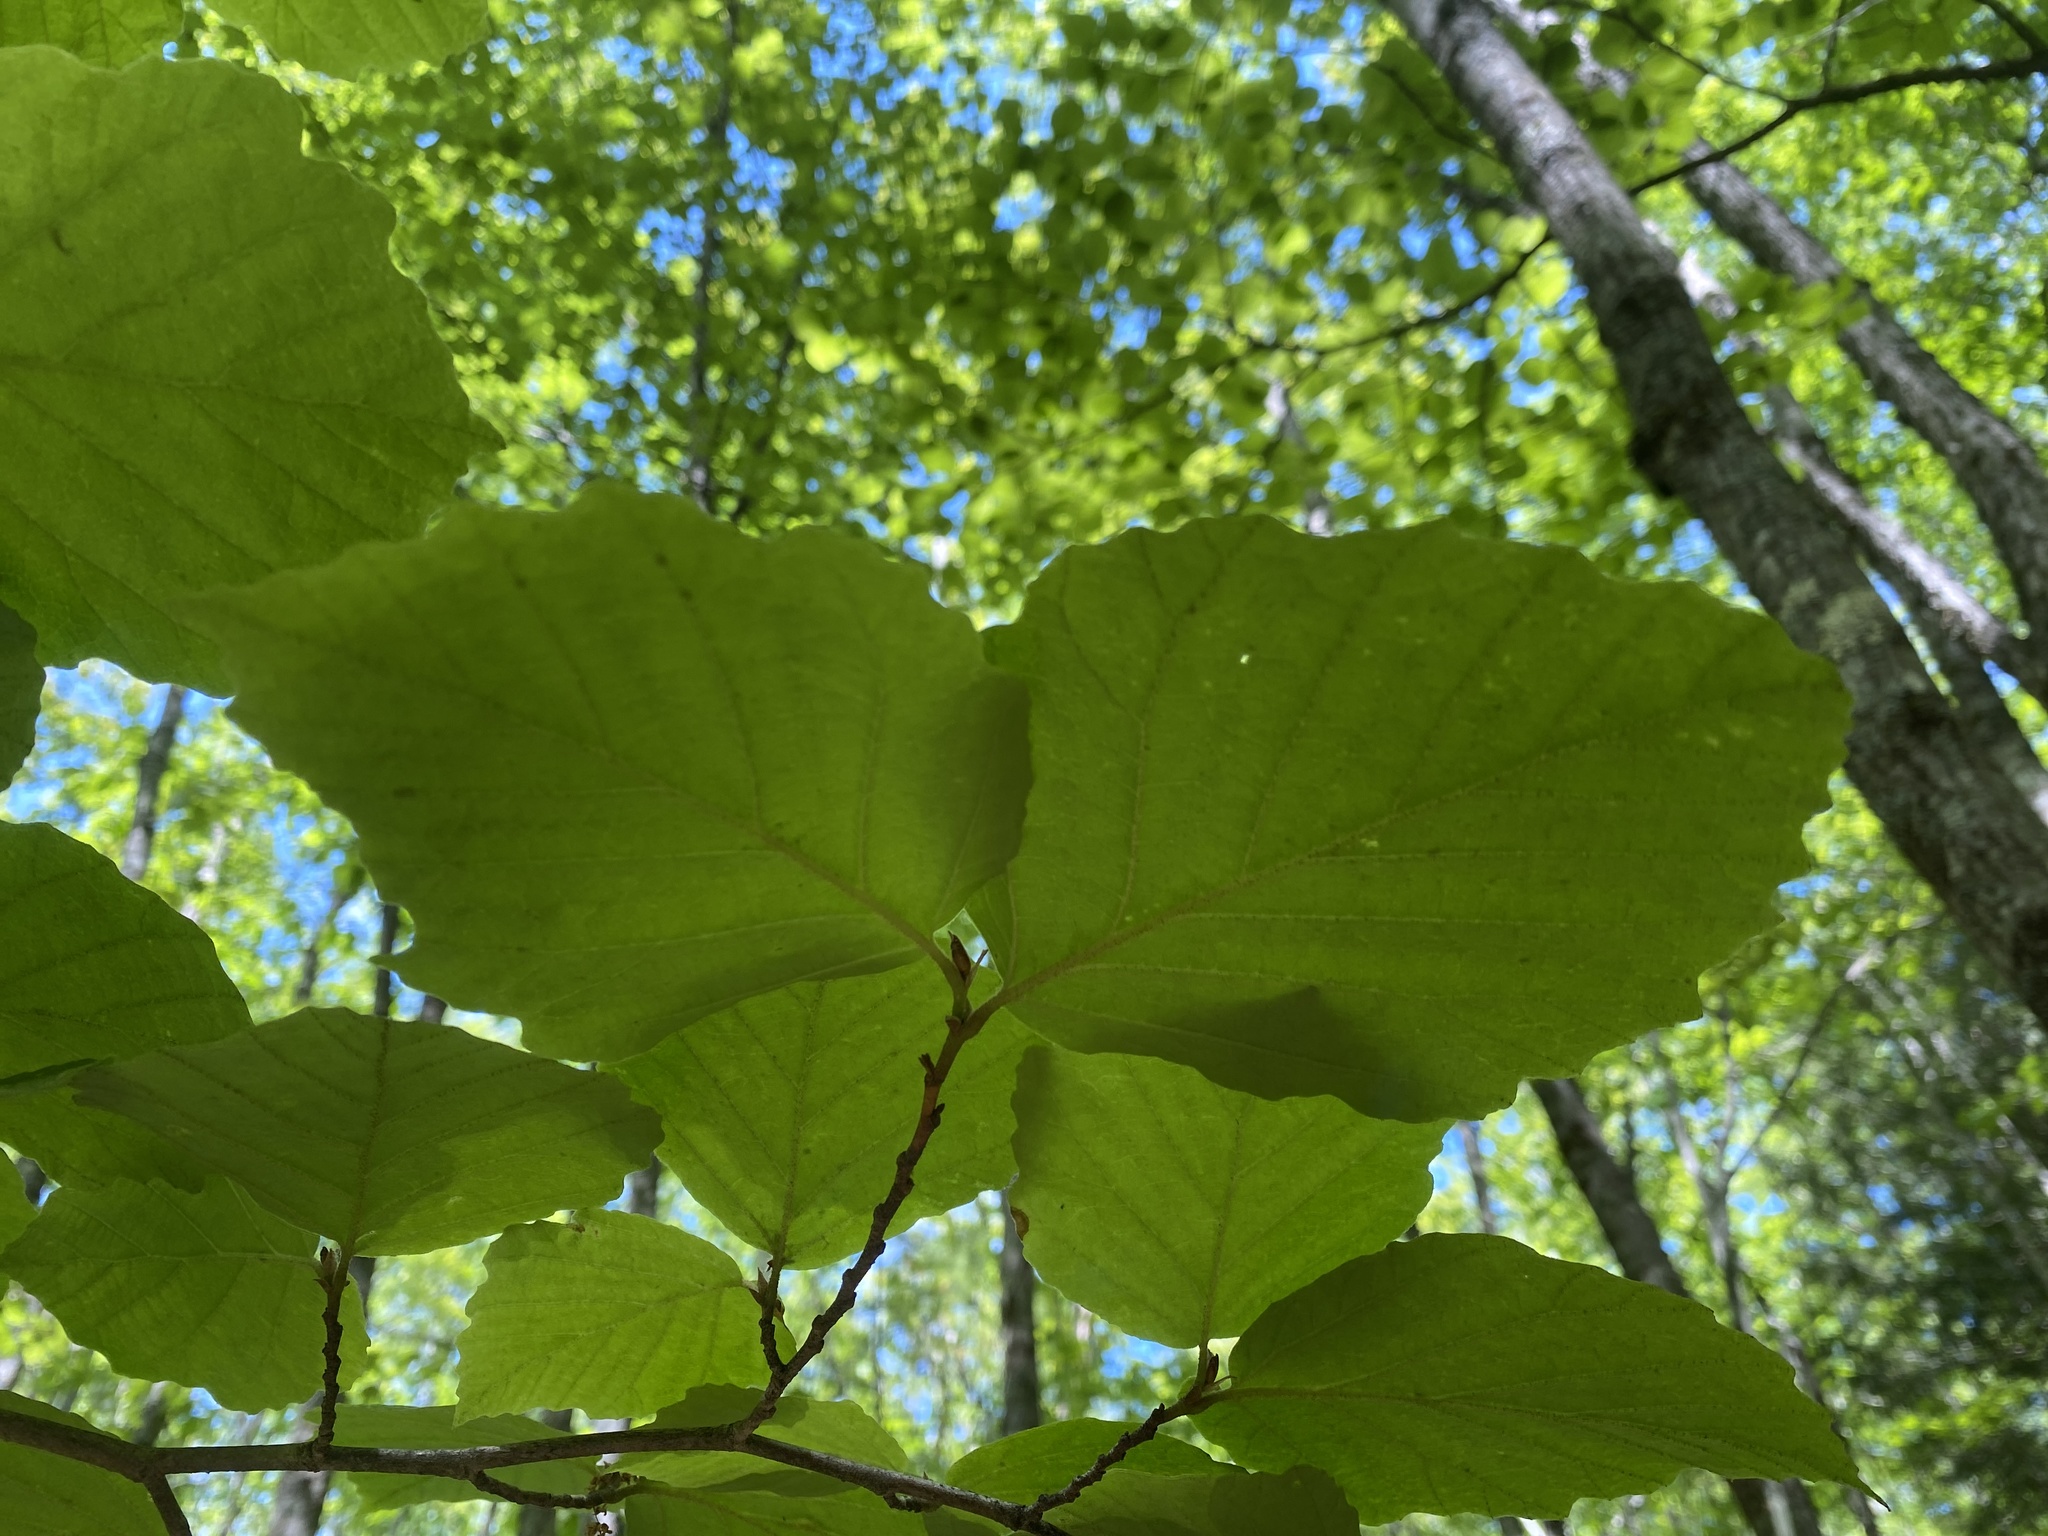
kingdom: Plantae
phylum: Tracheophyta
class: Magnoliopsida
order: Saxifragales
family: Hamamelidaceae
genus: Hamamelis
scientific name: Hamamelis virginiana
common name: Witch-hazel
